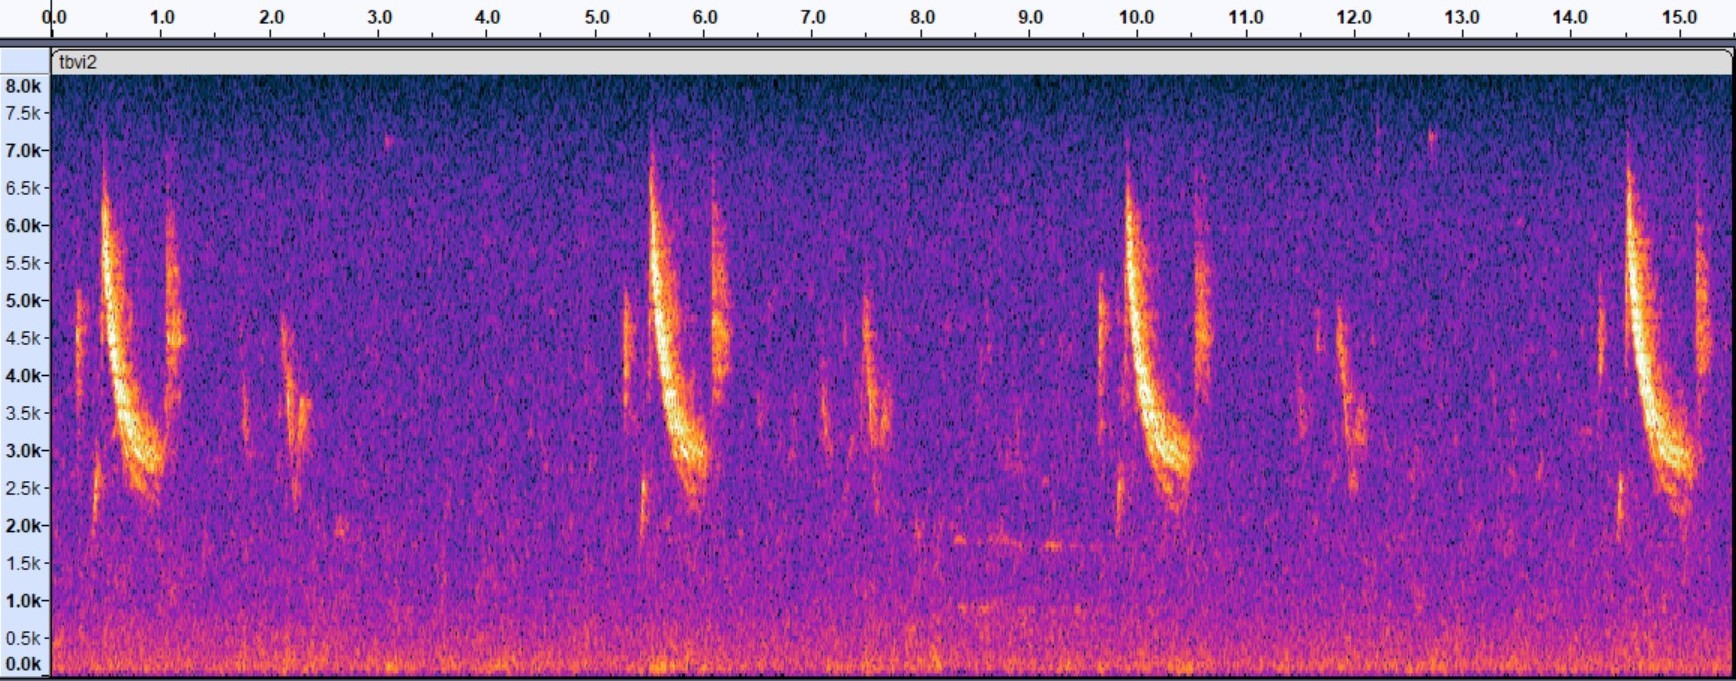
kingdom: Animalia
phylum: Chordata
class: Aves
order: Passeriformes
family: Vireonidae
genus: Vireo
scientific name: Vireo crassirostris
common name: Thick-billed vireo
